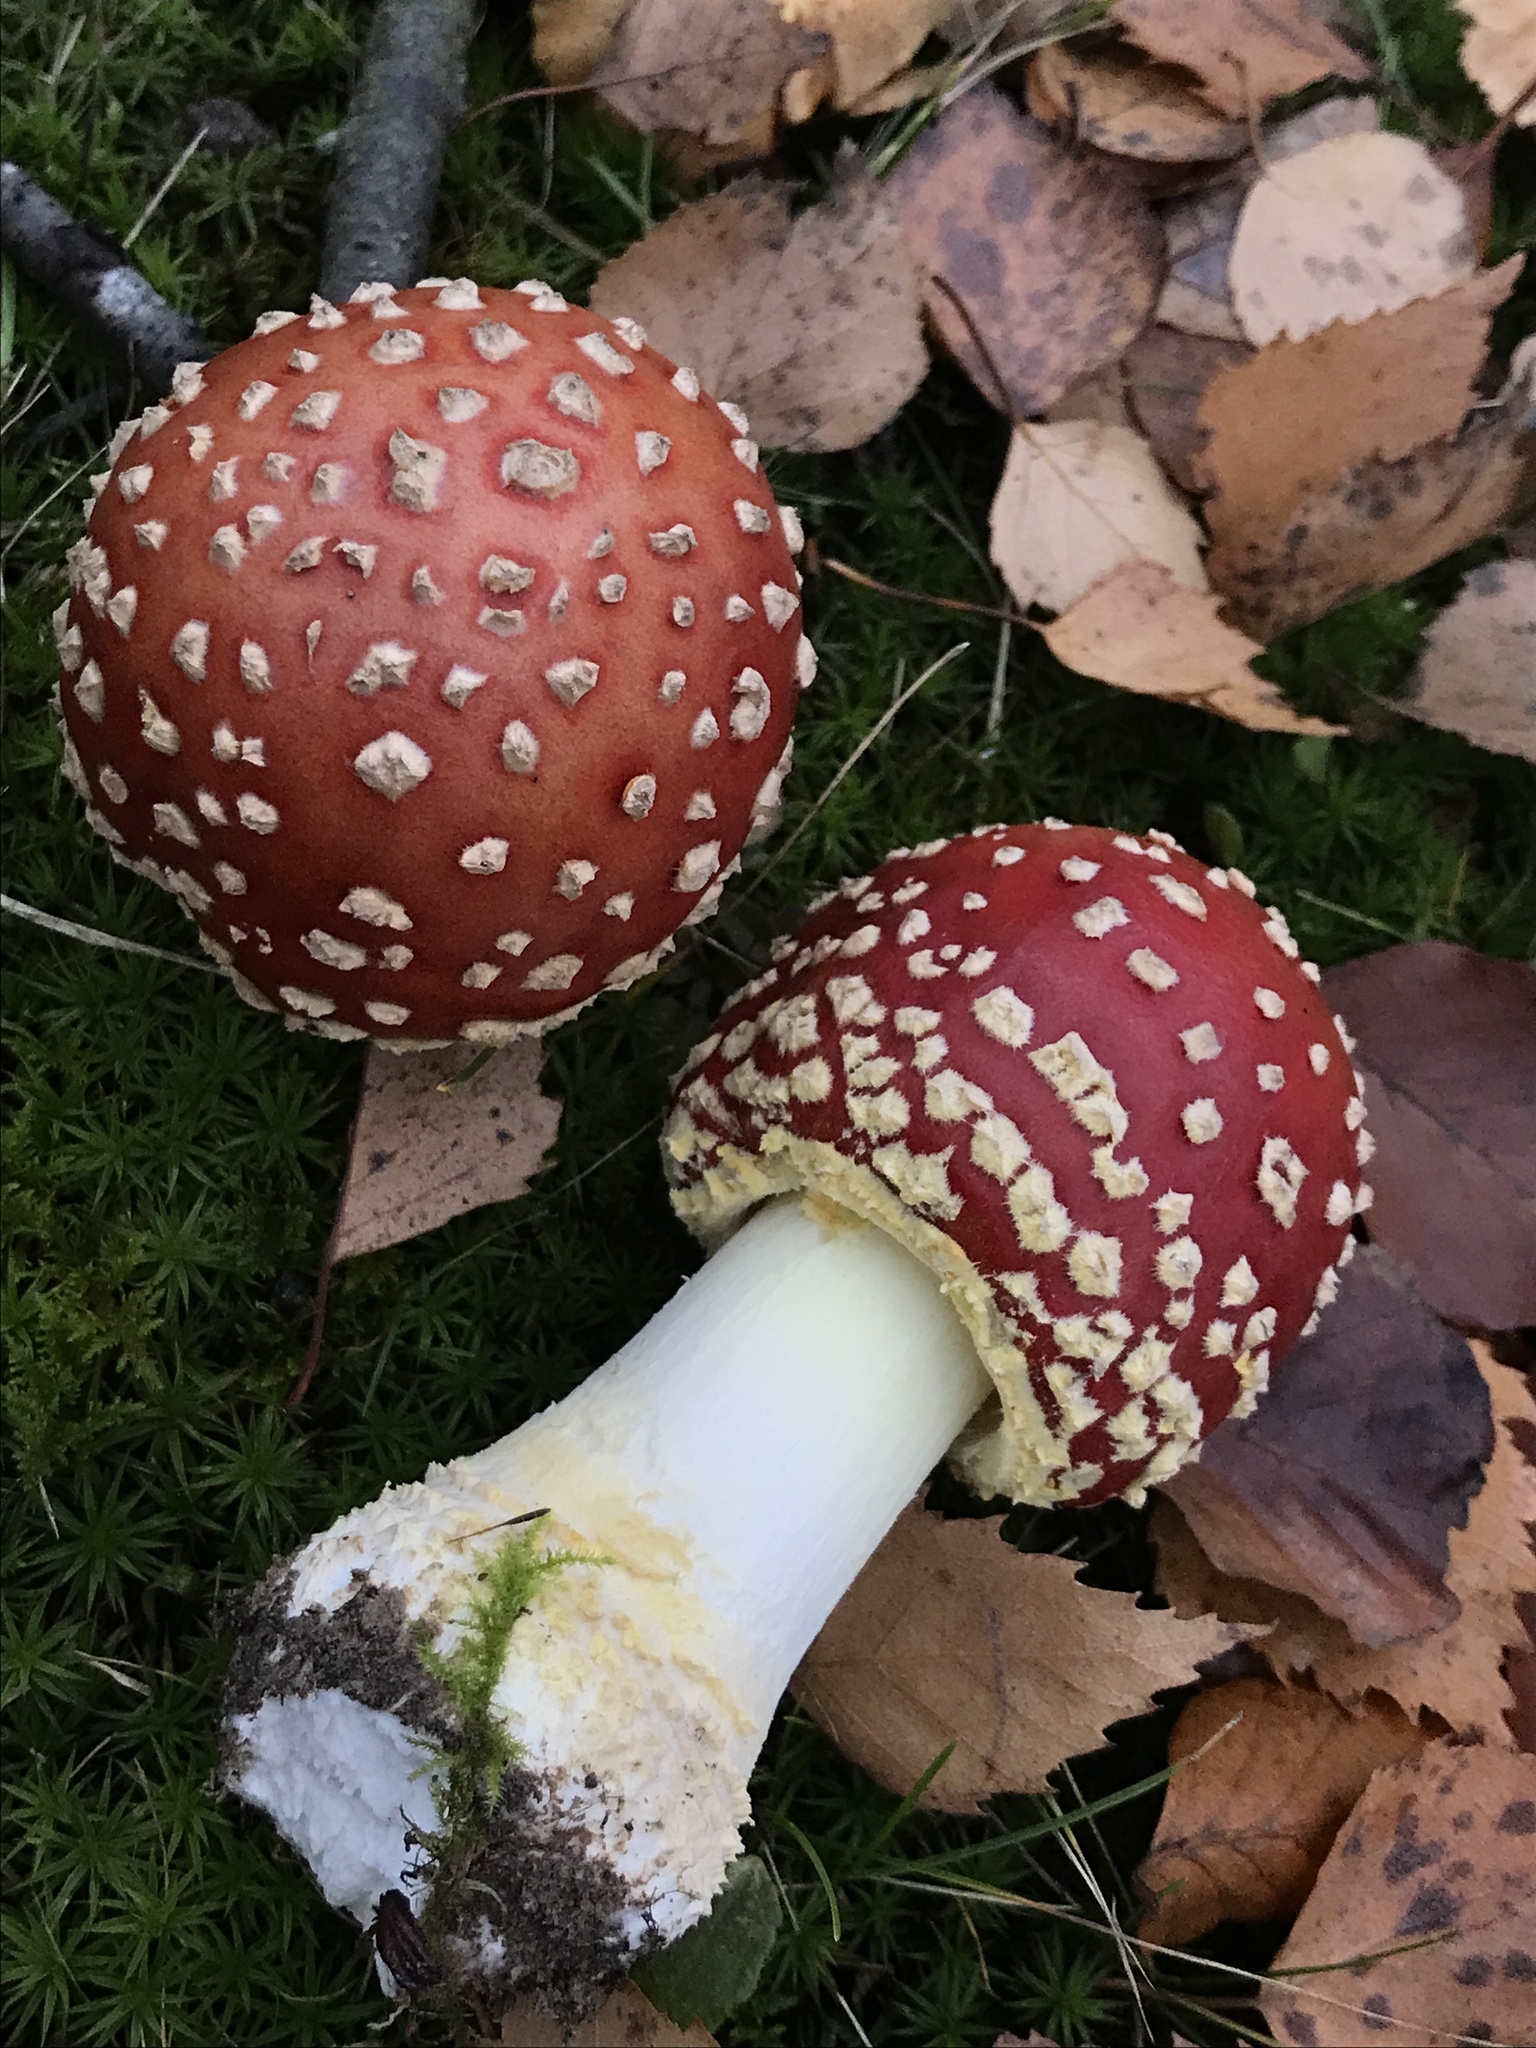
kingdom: Fungi
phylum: Basidiomycota
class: Agaricomycetes
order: Agaricales
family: Amanitaceae
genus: Amanita
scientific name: Amanita muscaria
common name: Fly agaric
